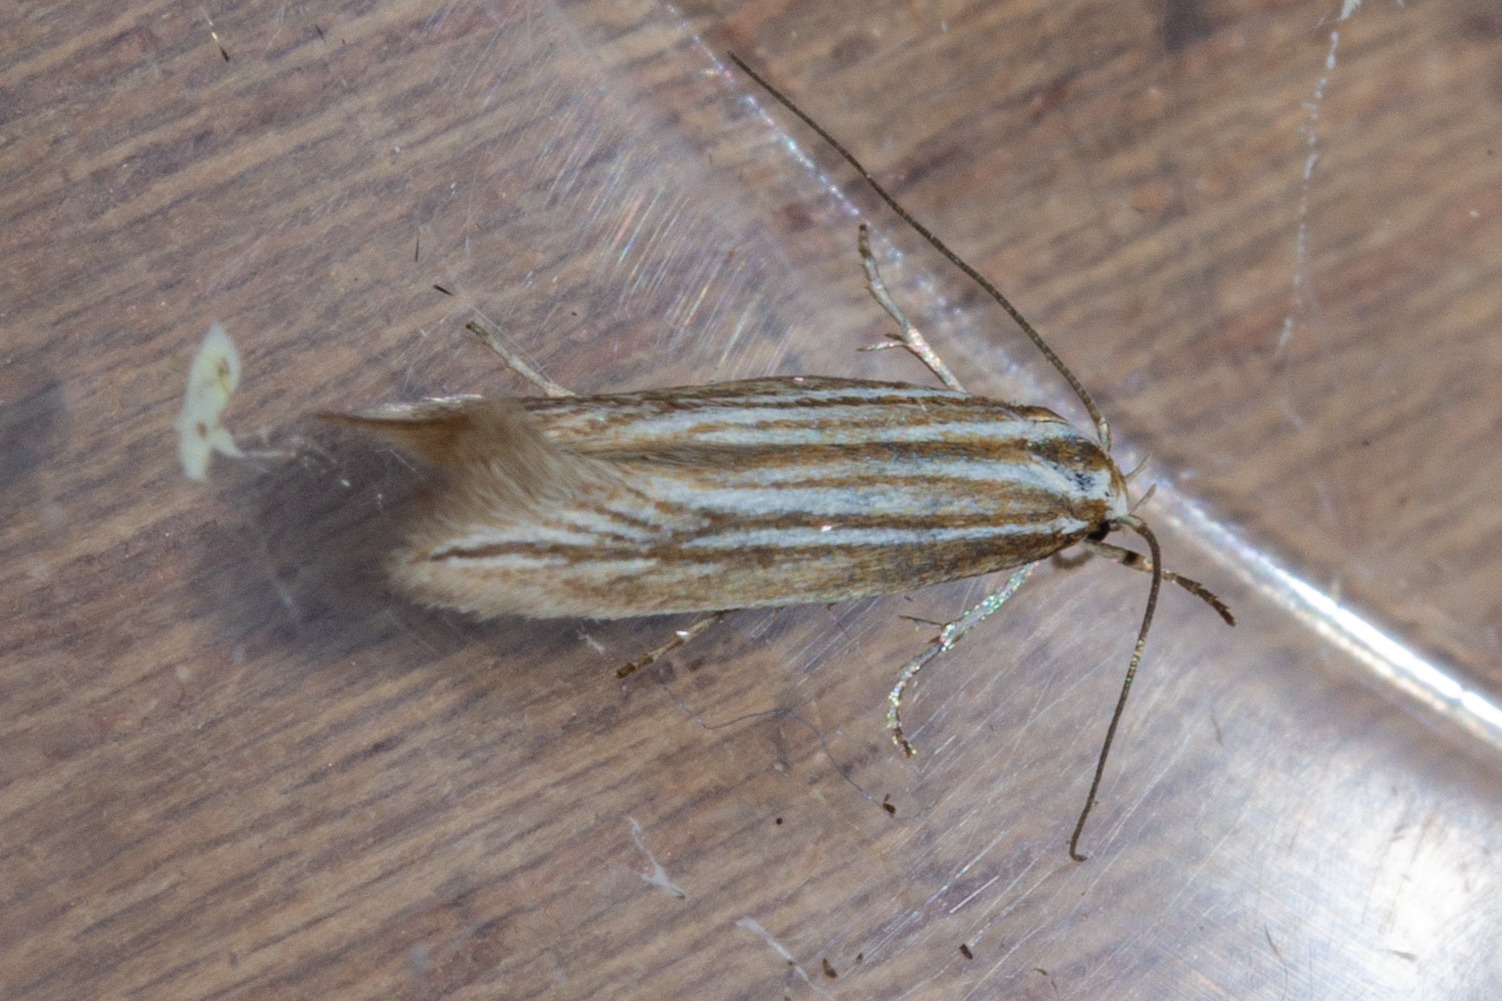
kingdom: Animalia
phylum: Arthropoda
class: Insecta
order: Lepidoptera
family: Elachistidae
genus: Elachista
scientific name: Elachista thallophora
